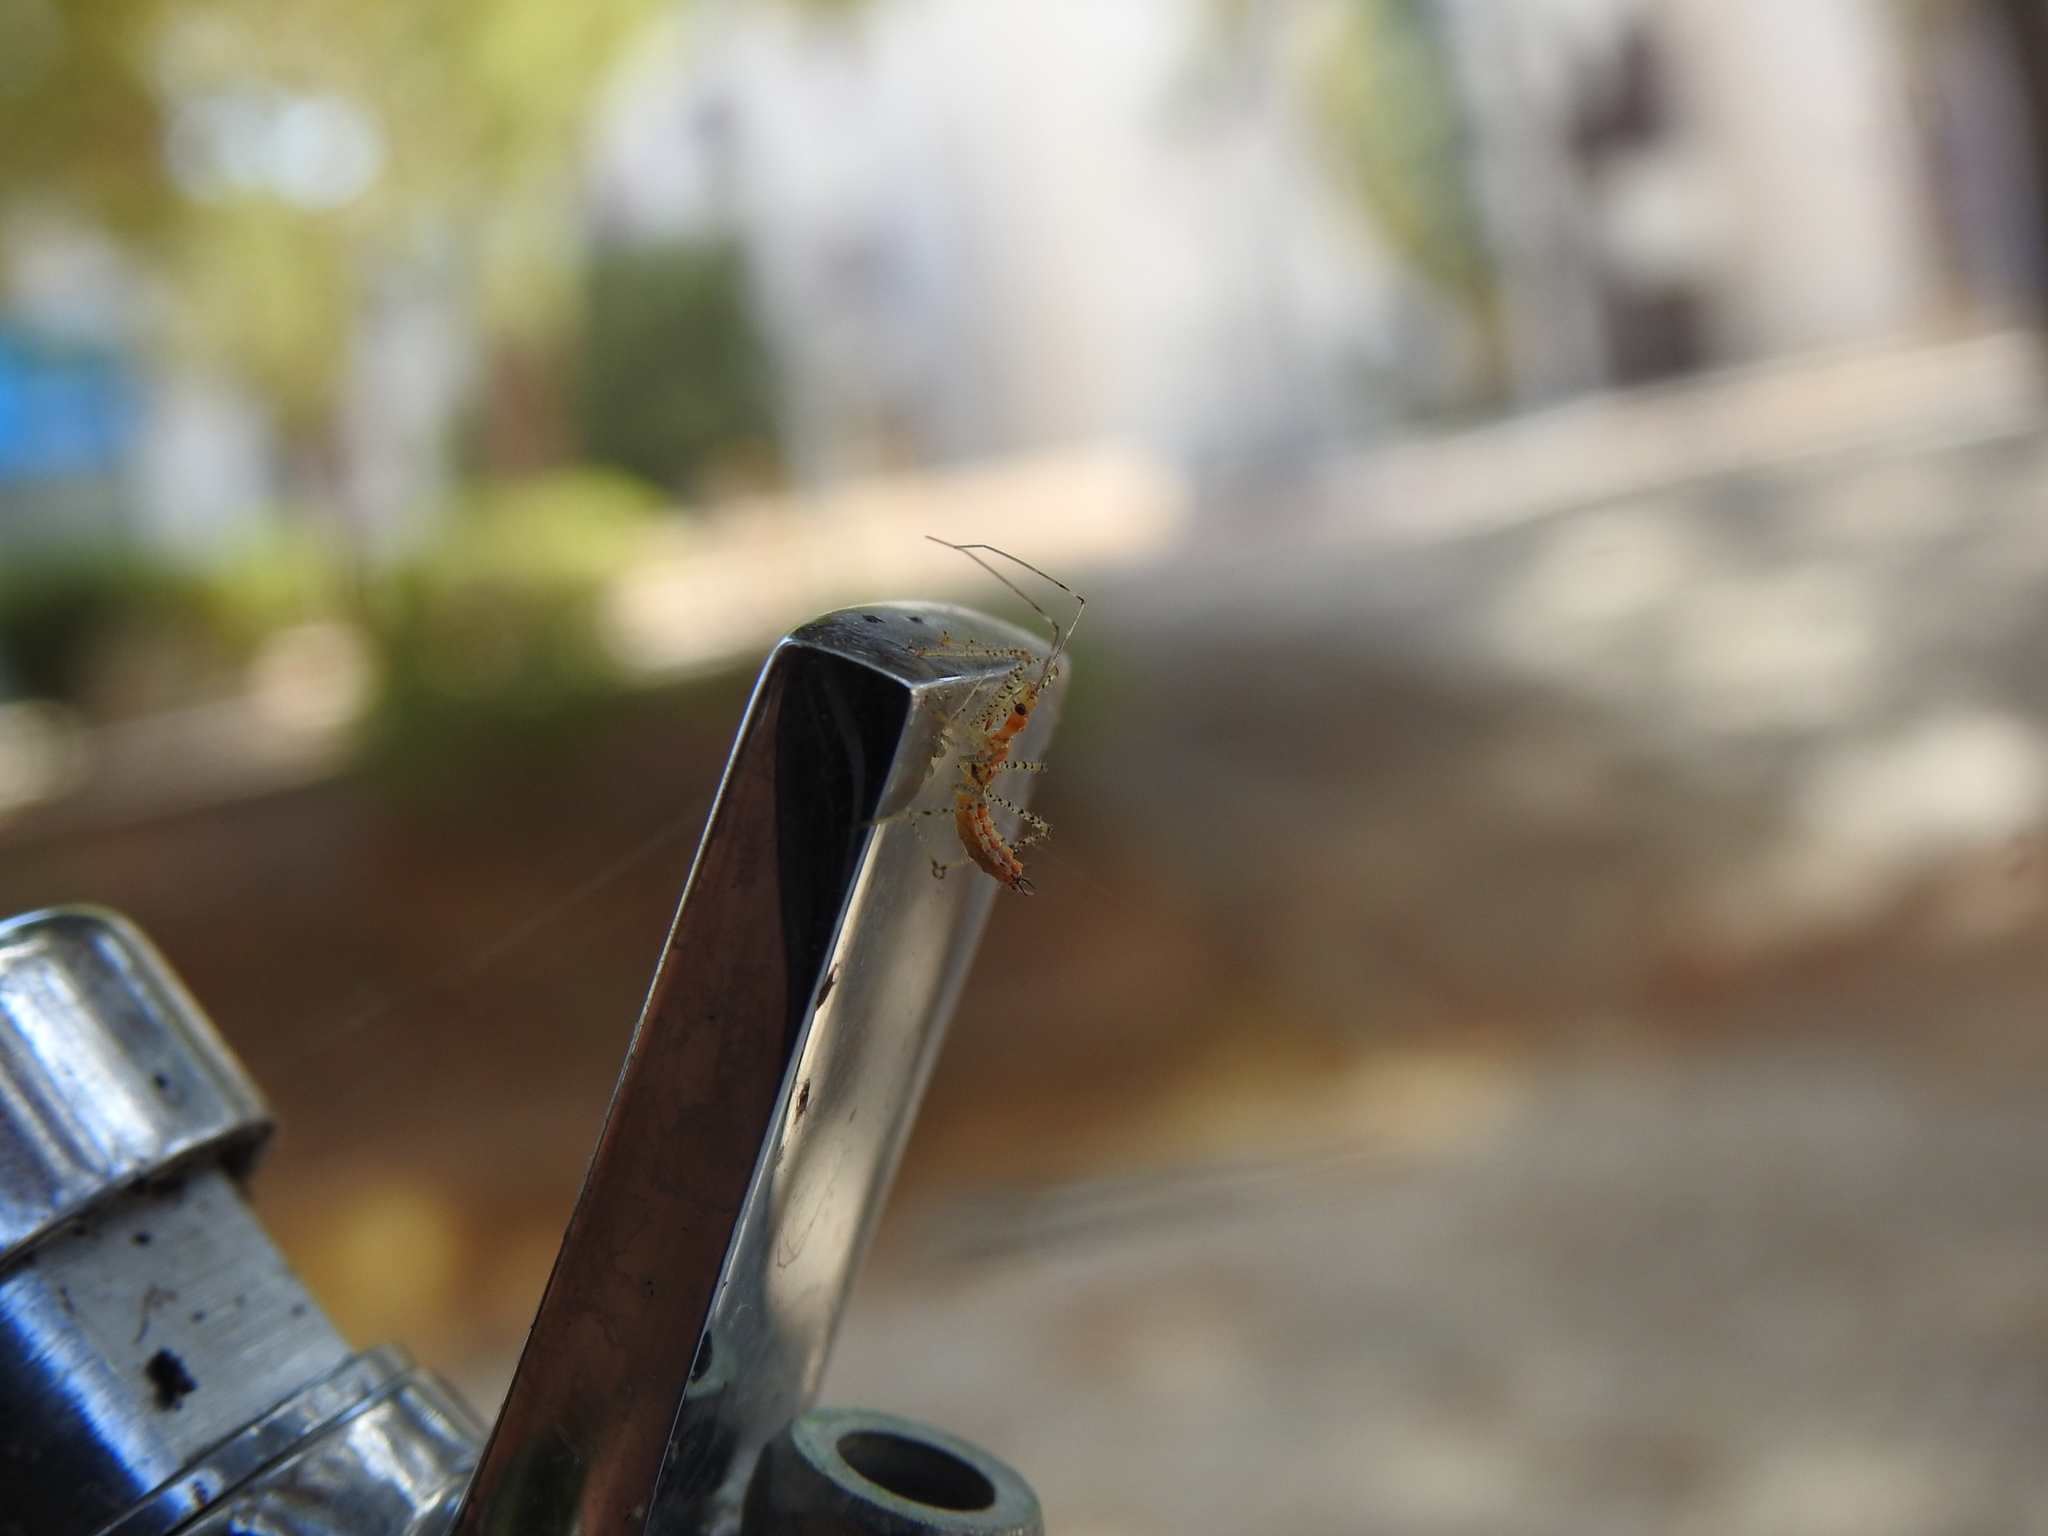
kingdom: Animalia
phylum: Arthropoda
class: Insecta
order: Hemiptera
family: Reduviidae
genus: Zelus
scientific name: Zelus renardii
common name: Assassin bug
